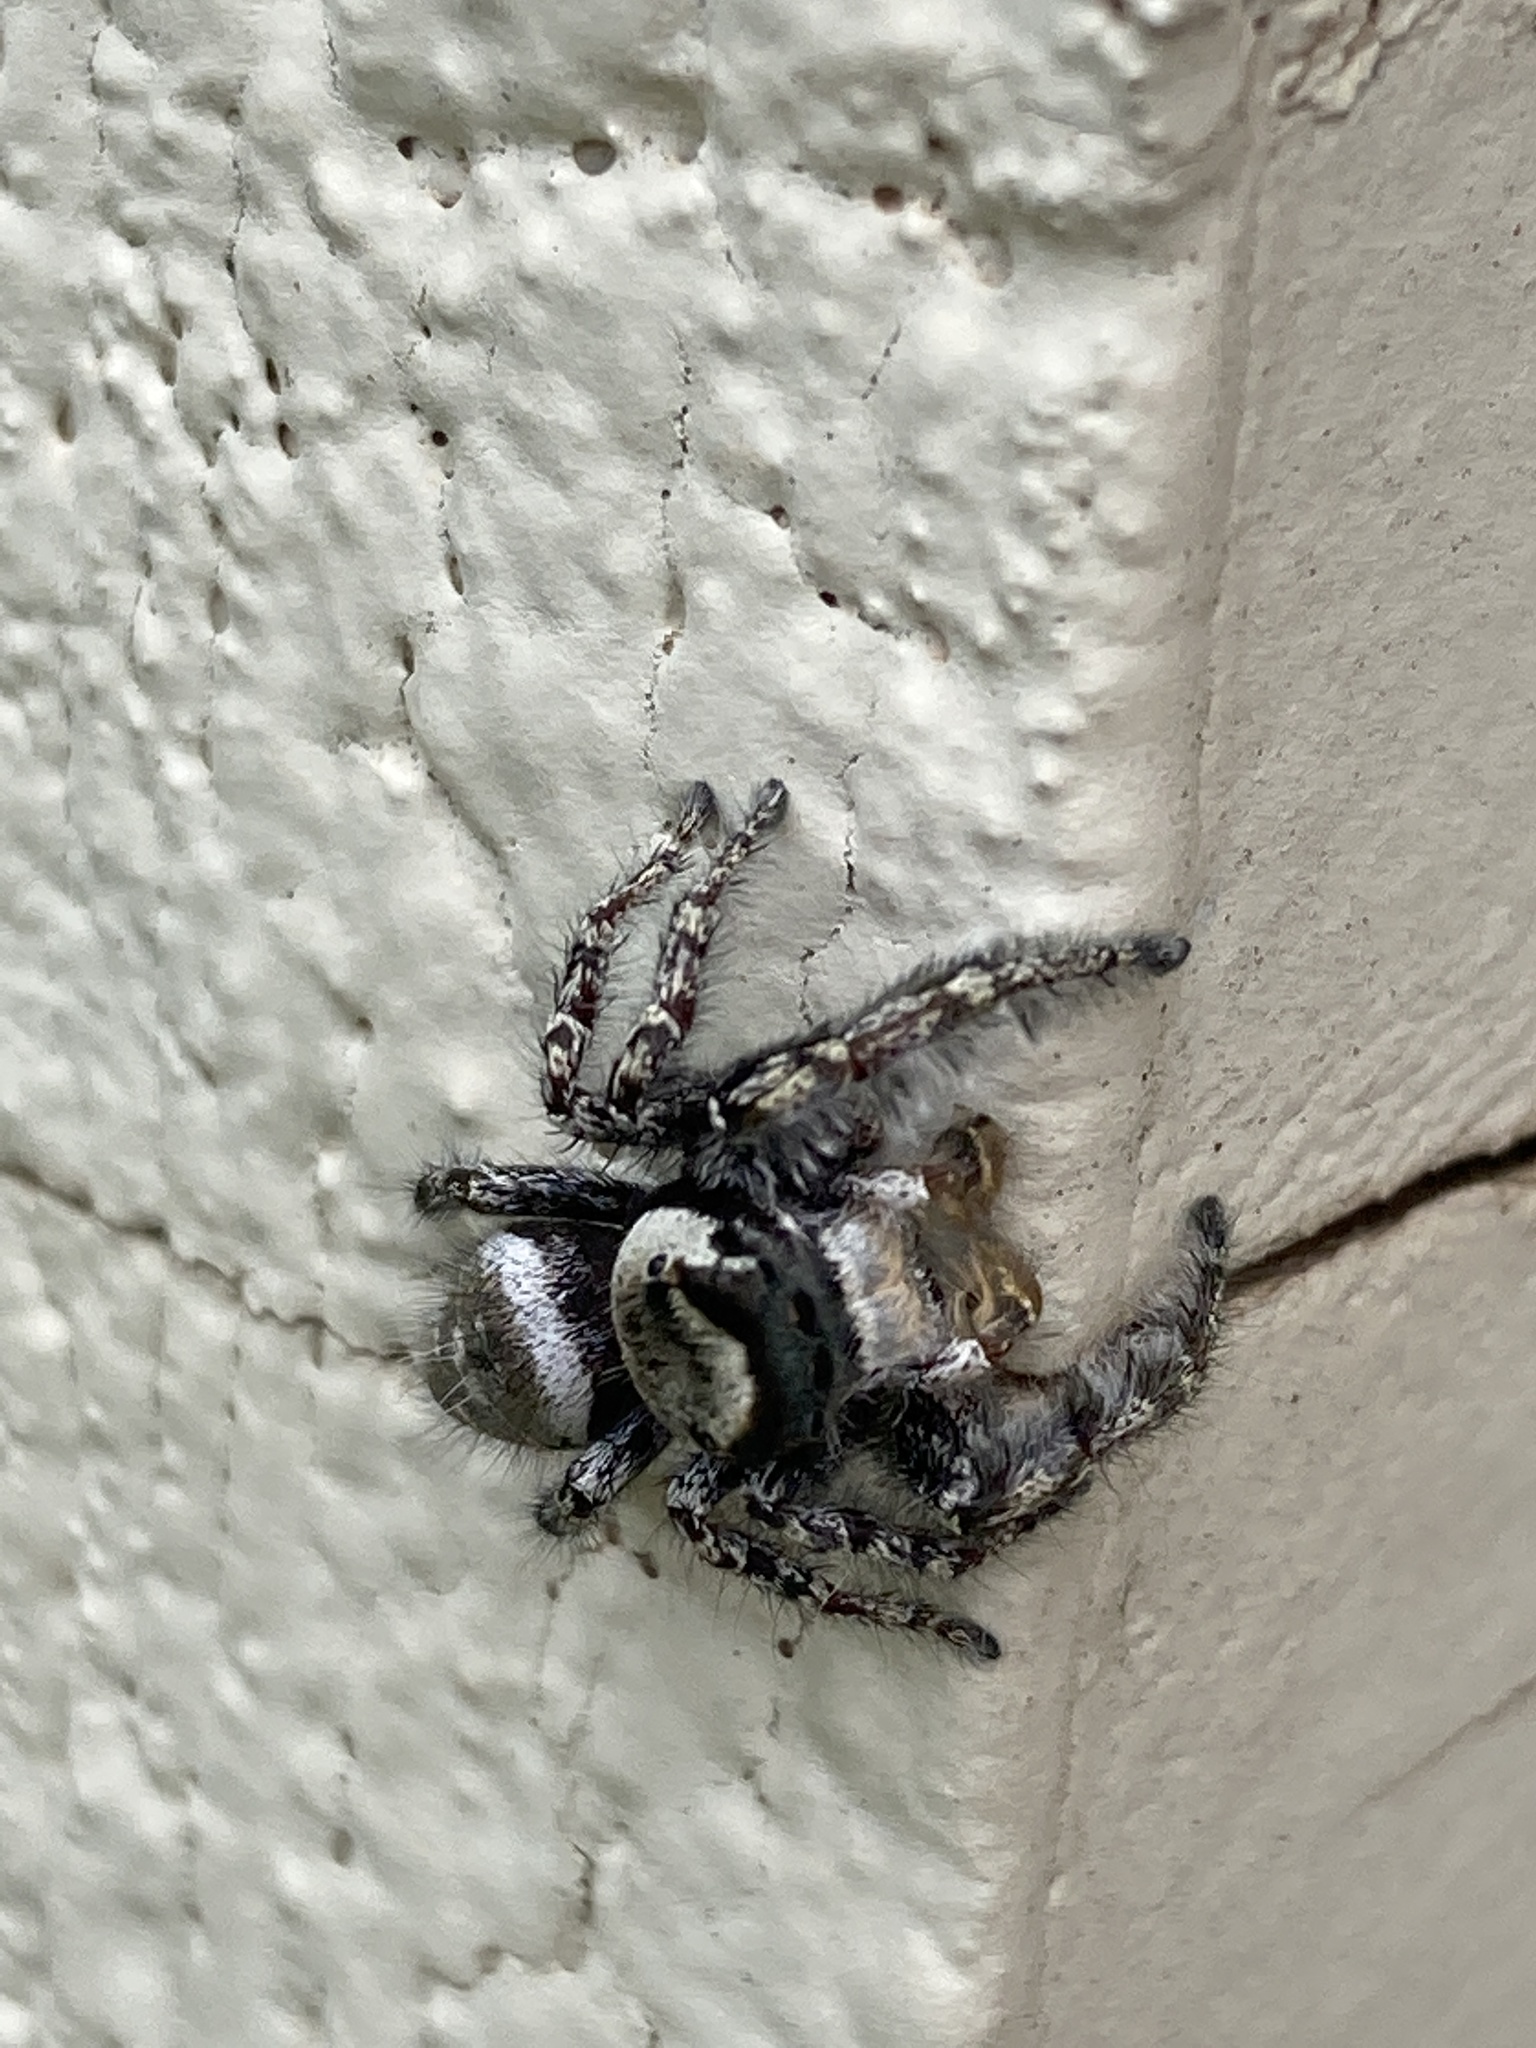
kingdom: Animalia
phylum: Arthropoda
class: Arachnida
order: Araneae
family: Salticidae
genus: Phidippus
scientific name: Phidippus carolinensis
